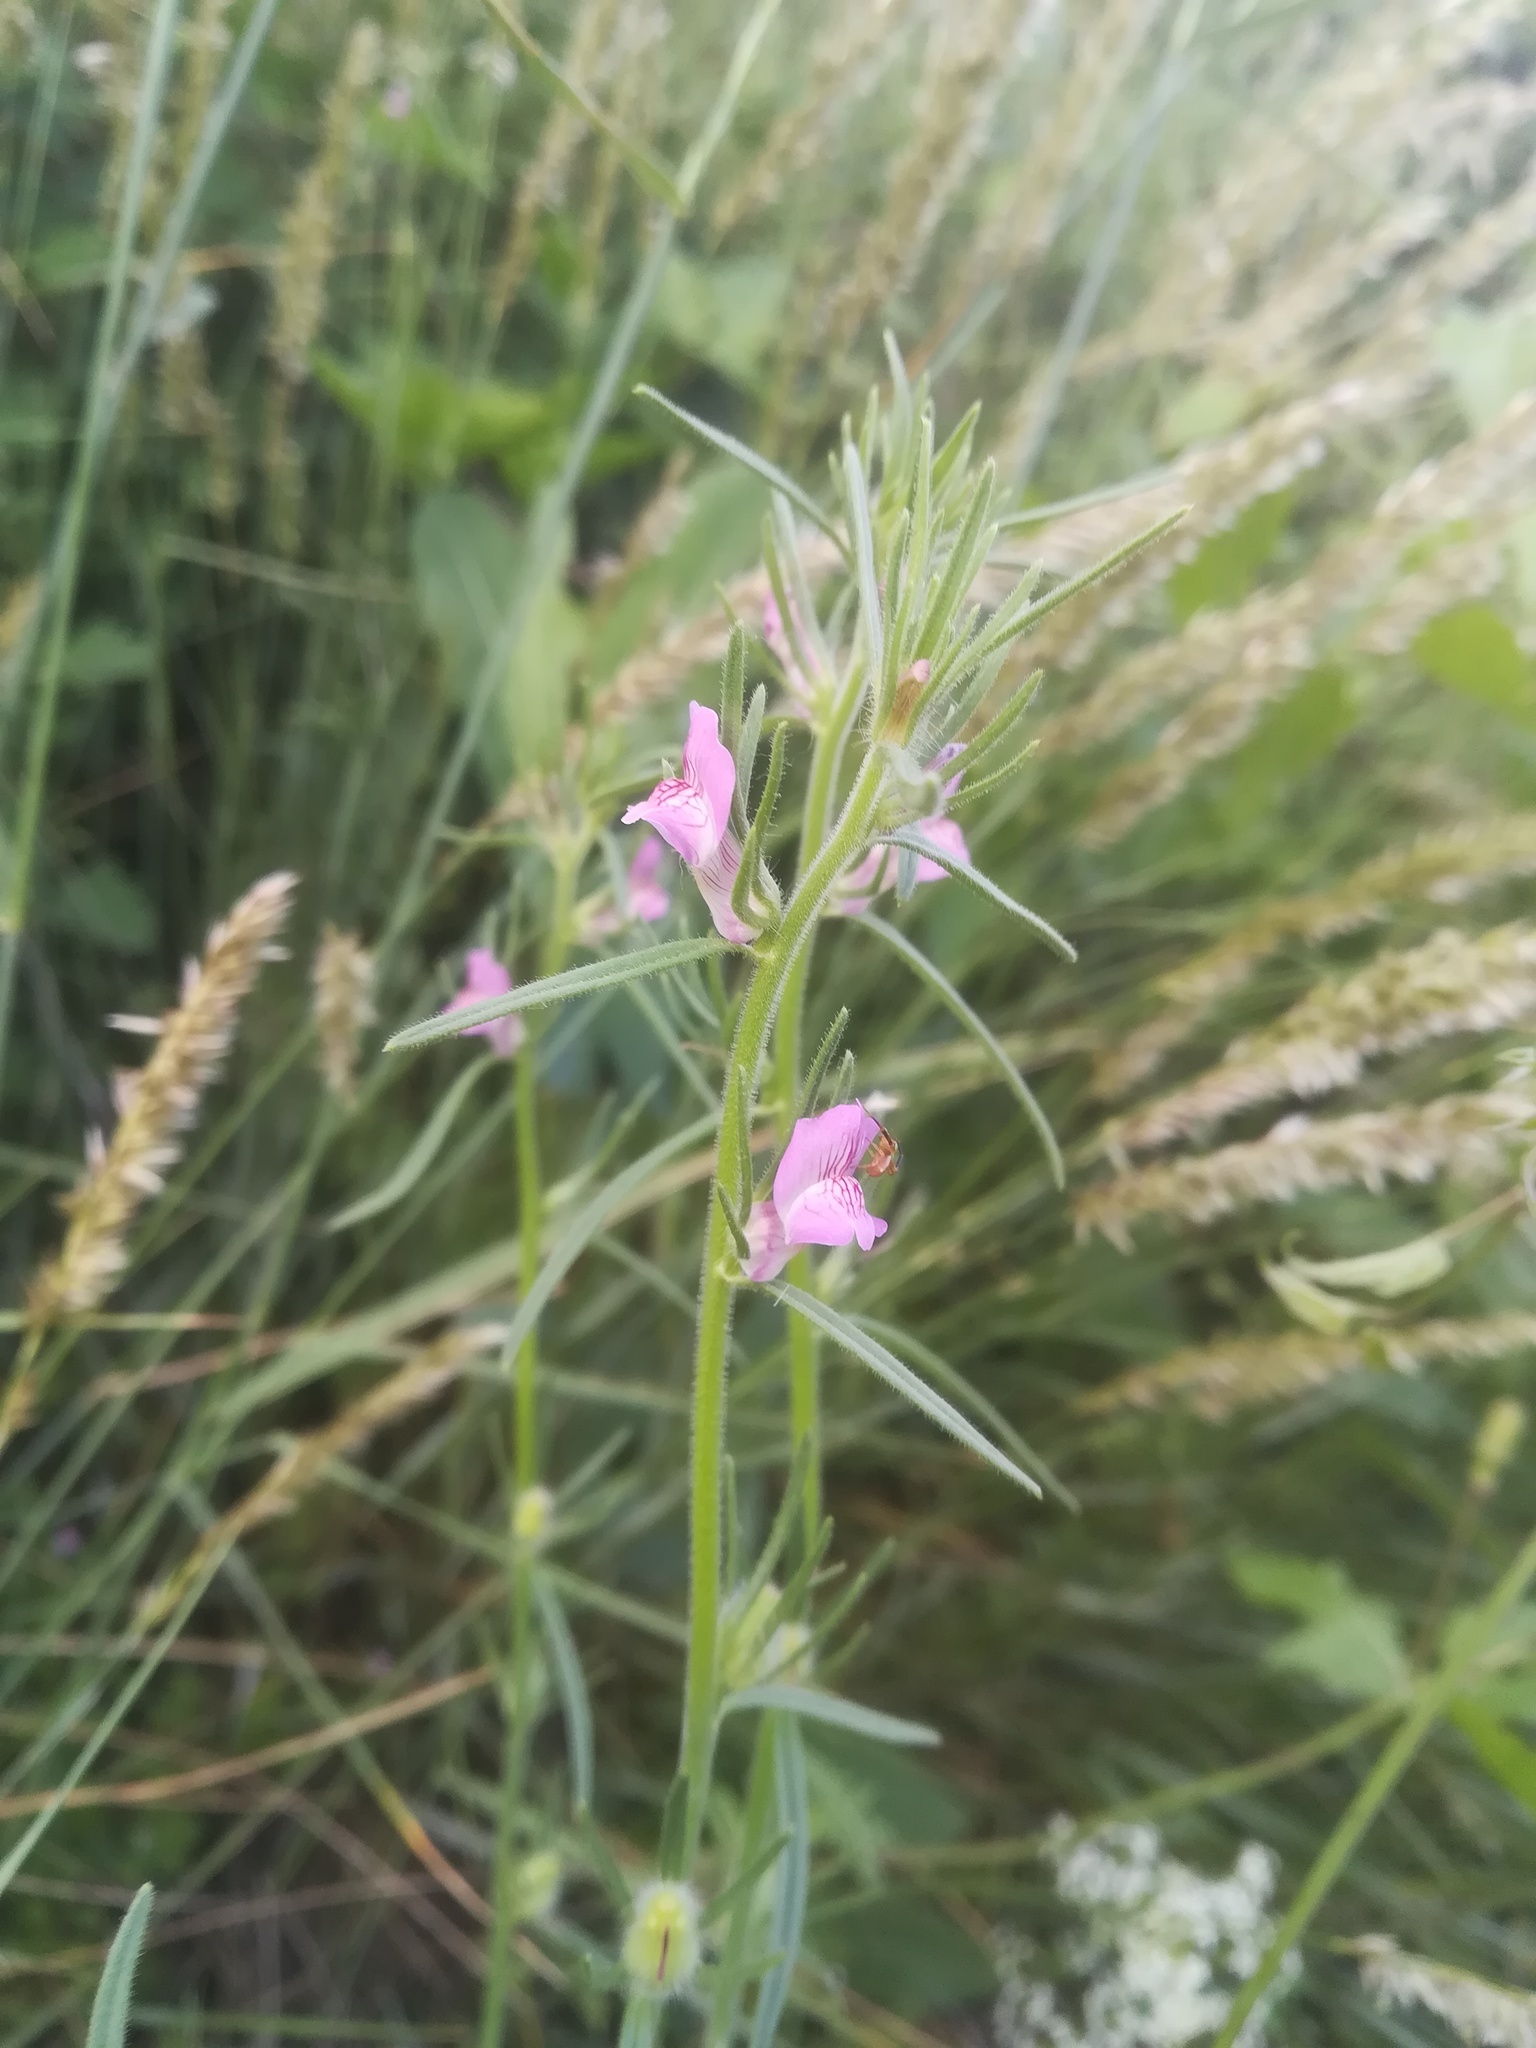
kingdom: Plantae
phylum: Tracheophyta
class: Magnoliopsida
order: Lamiales
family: Plantaginaceae
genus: Misopates
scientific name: Misopates orontium
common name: Weasel's-snout
